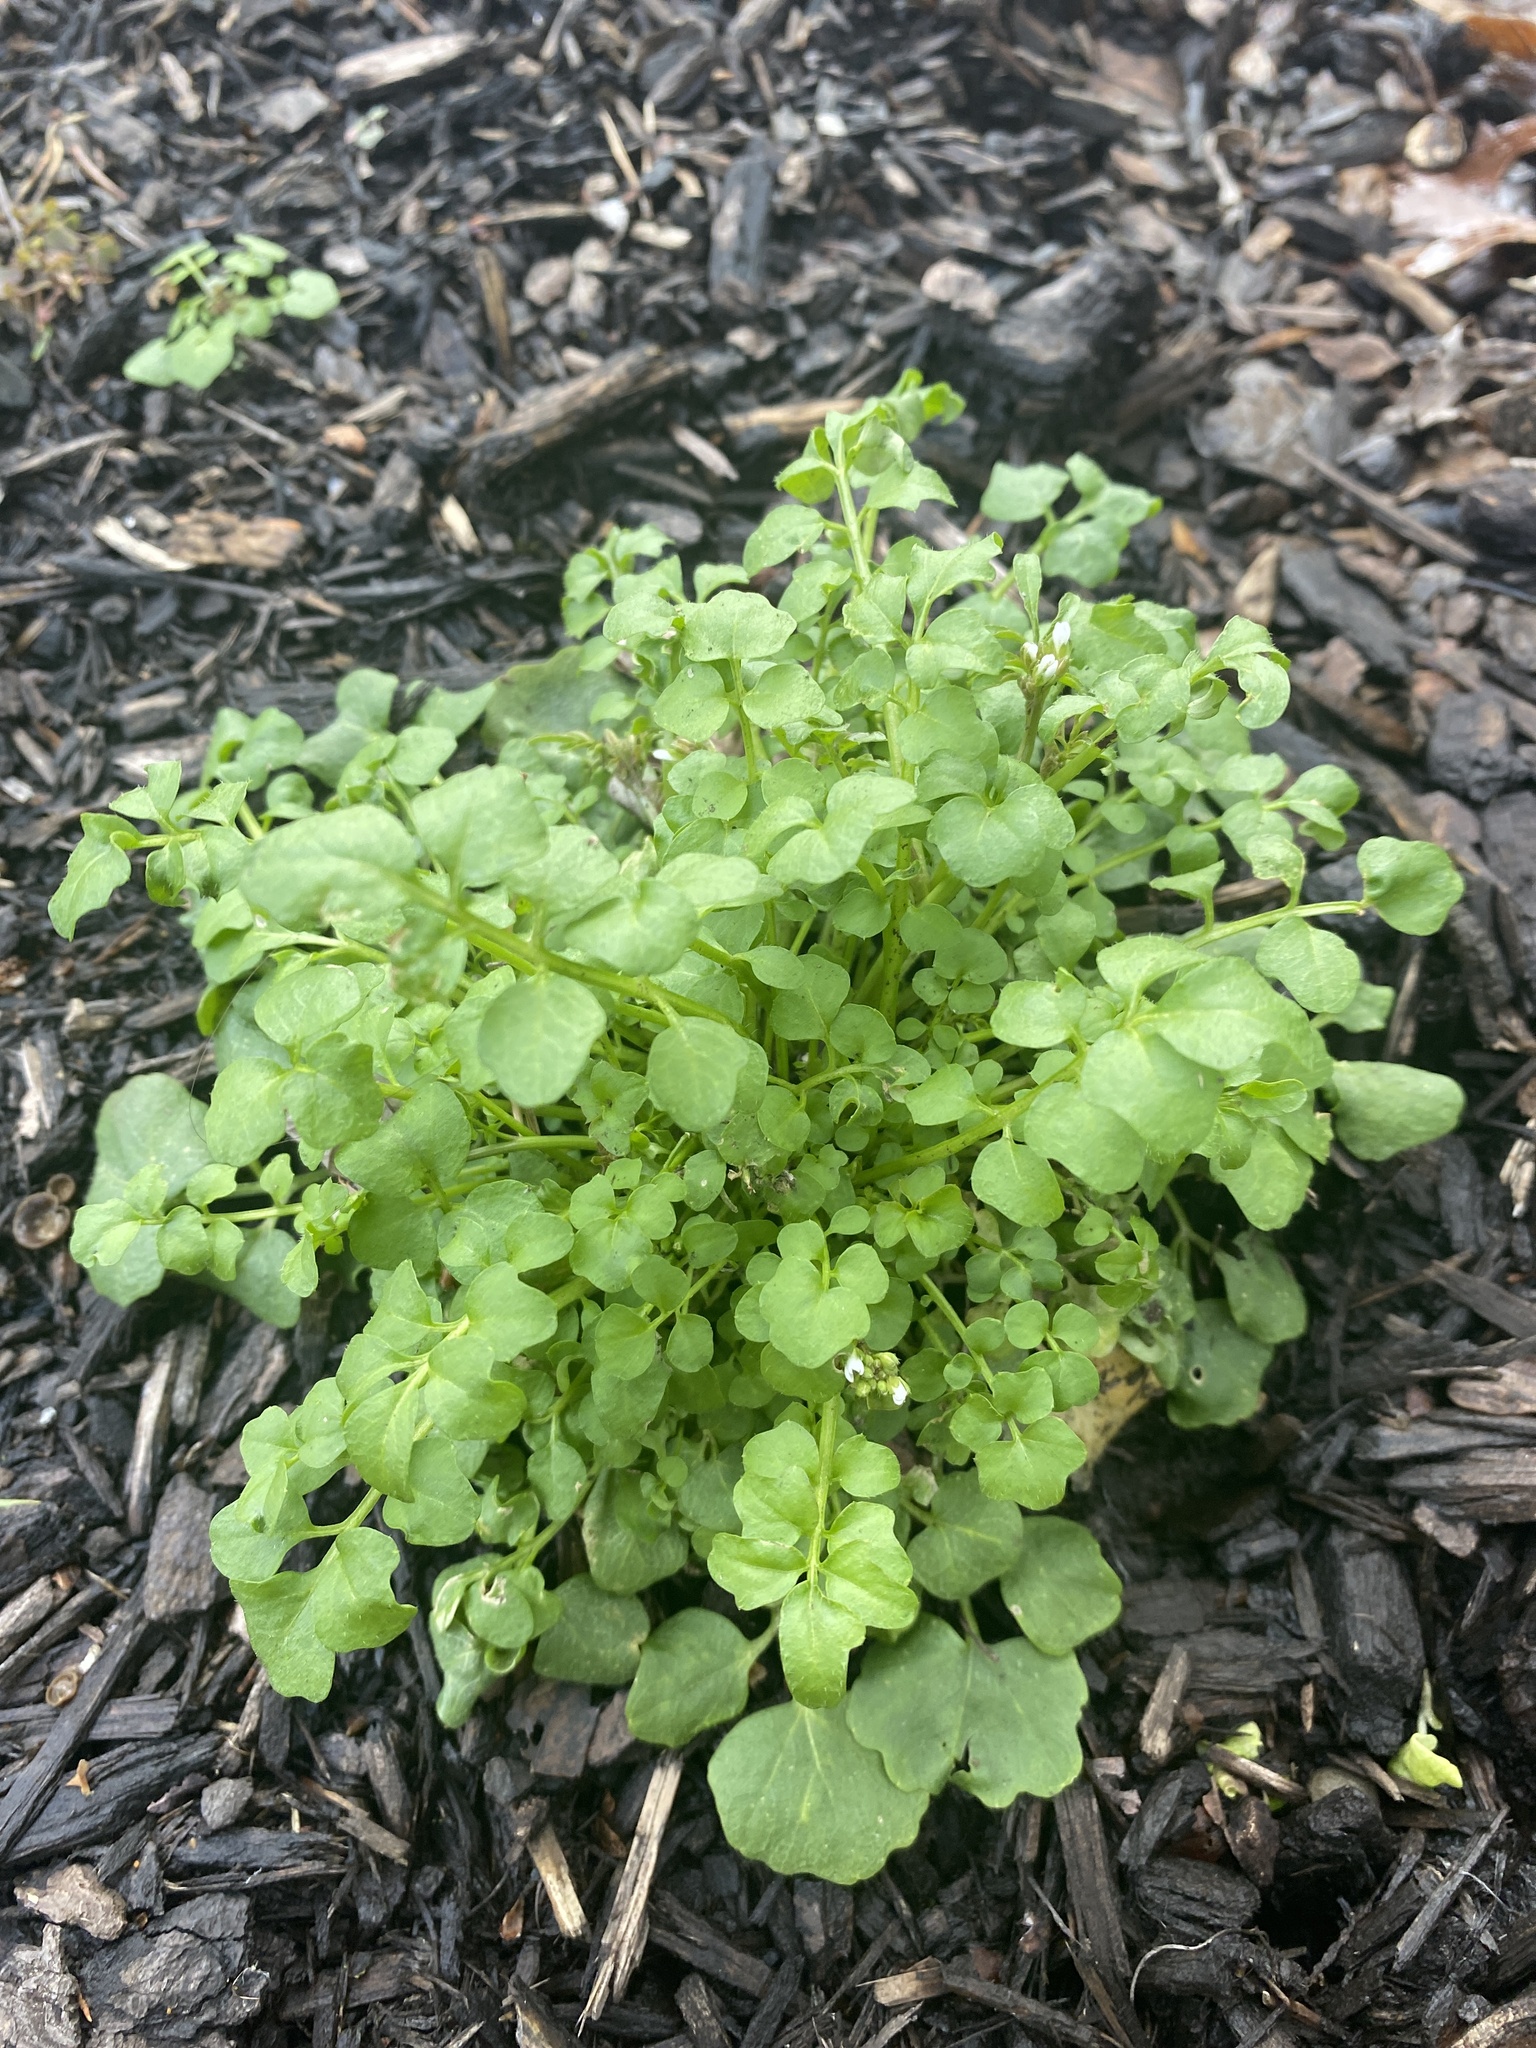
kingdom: Plantae
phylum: Tracheophyta
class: Magnoliopsida
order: Brassicales
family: Brassicaceae
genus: Cardamine
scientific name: Cardamine hirsuta
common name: Hairy bittercress
